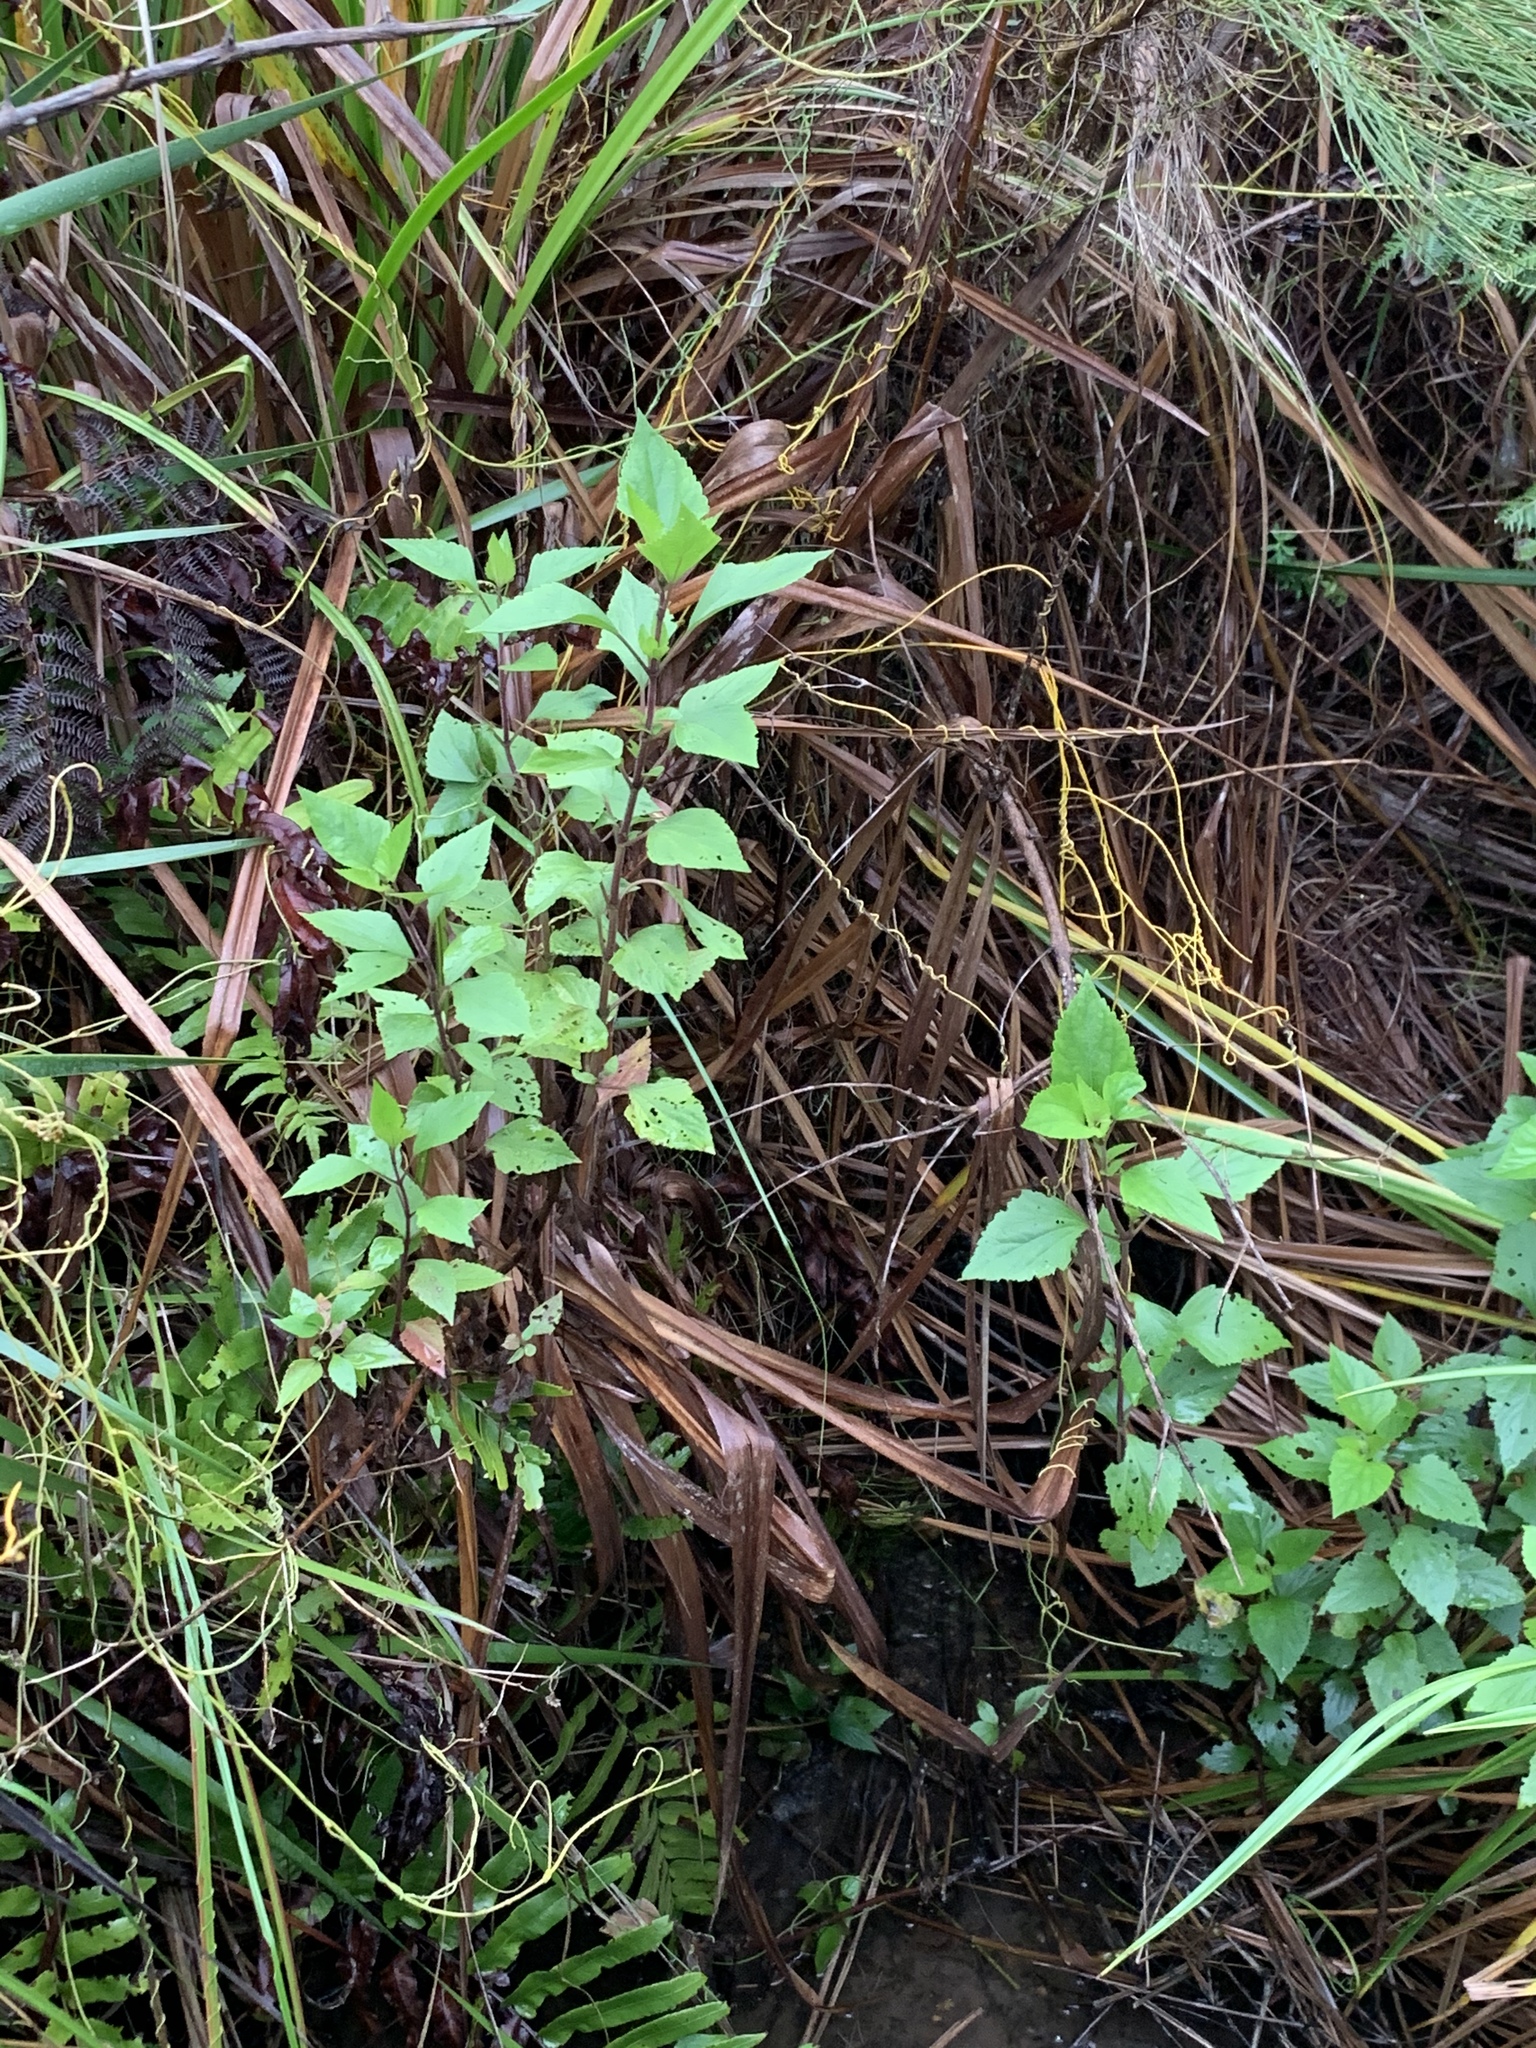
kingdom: Plantae
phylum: Tracheophyta
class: Magnoliopsida
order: Asterales
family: Asteraceae
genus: Ageratina
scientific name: Ageratina adenophora
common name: Sticky snakeroot
